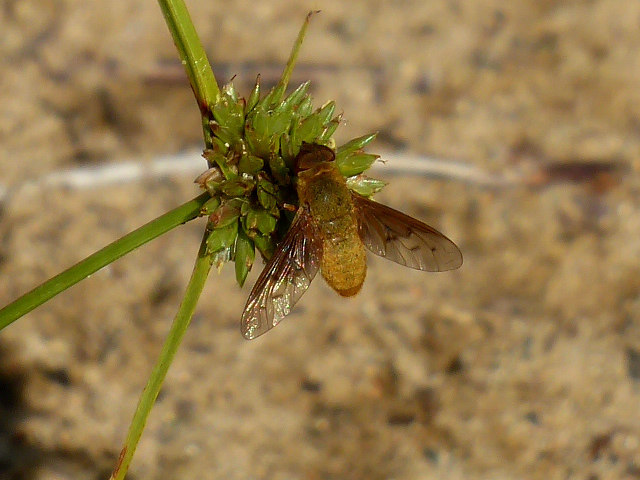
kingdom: Animalia
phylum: Arthropoda
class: Insecta
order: Diptera
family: Bombyliidae
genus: Chrysanthrax
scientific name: Chrysanthrax edititius
